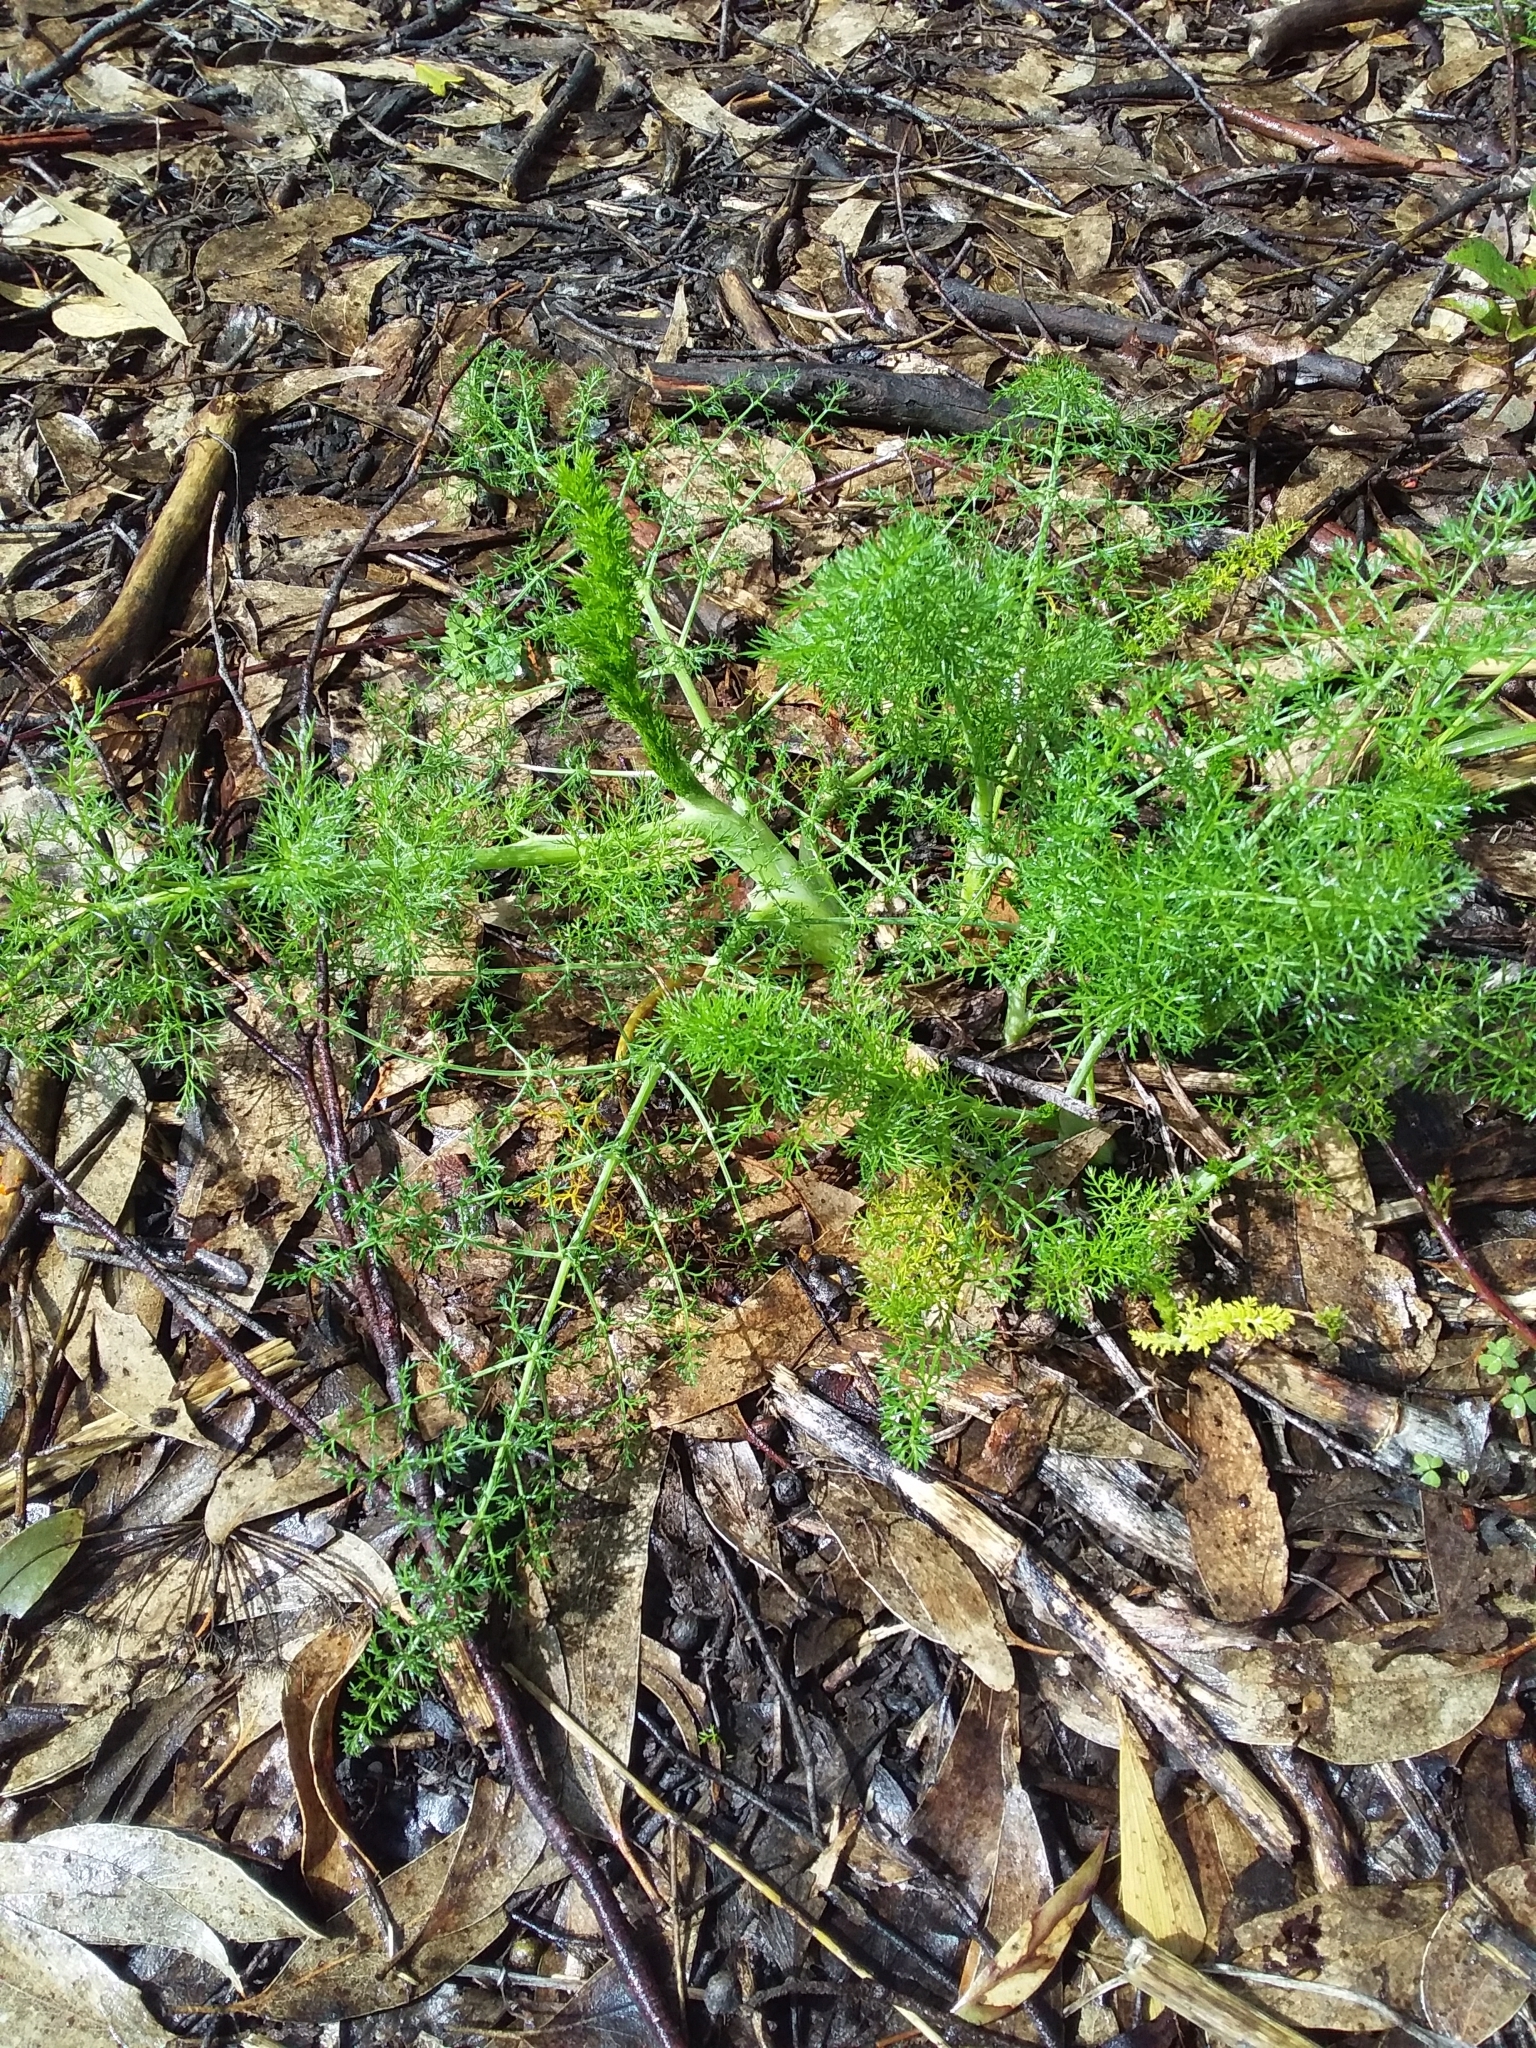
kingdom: Plantae
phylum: Tracheophyta
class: Magnoliopsida
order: Apiales
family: Apiaceae
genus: Foeniculum
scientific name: Foeniculum vulgare
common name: Fennel
